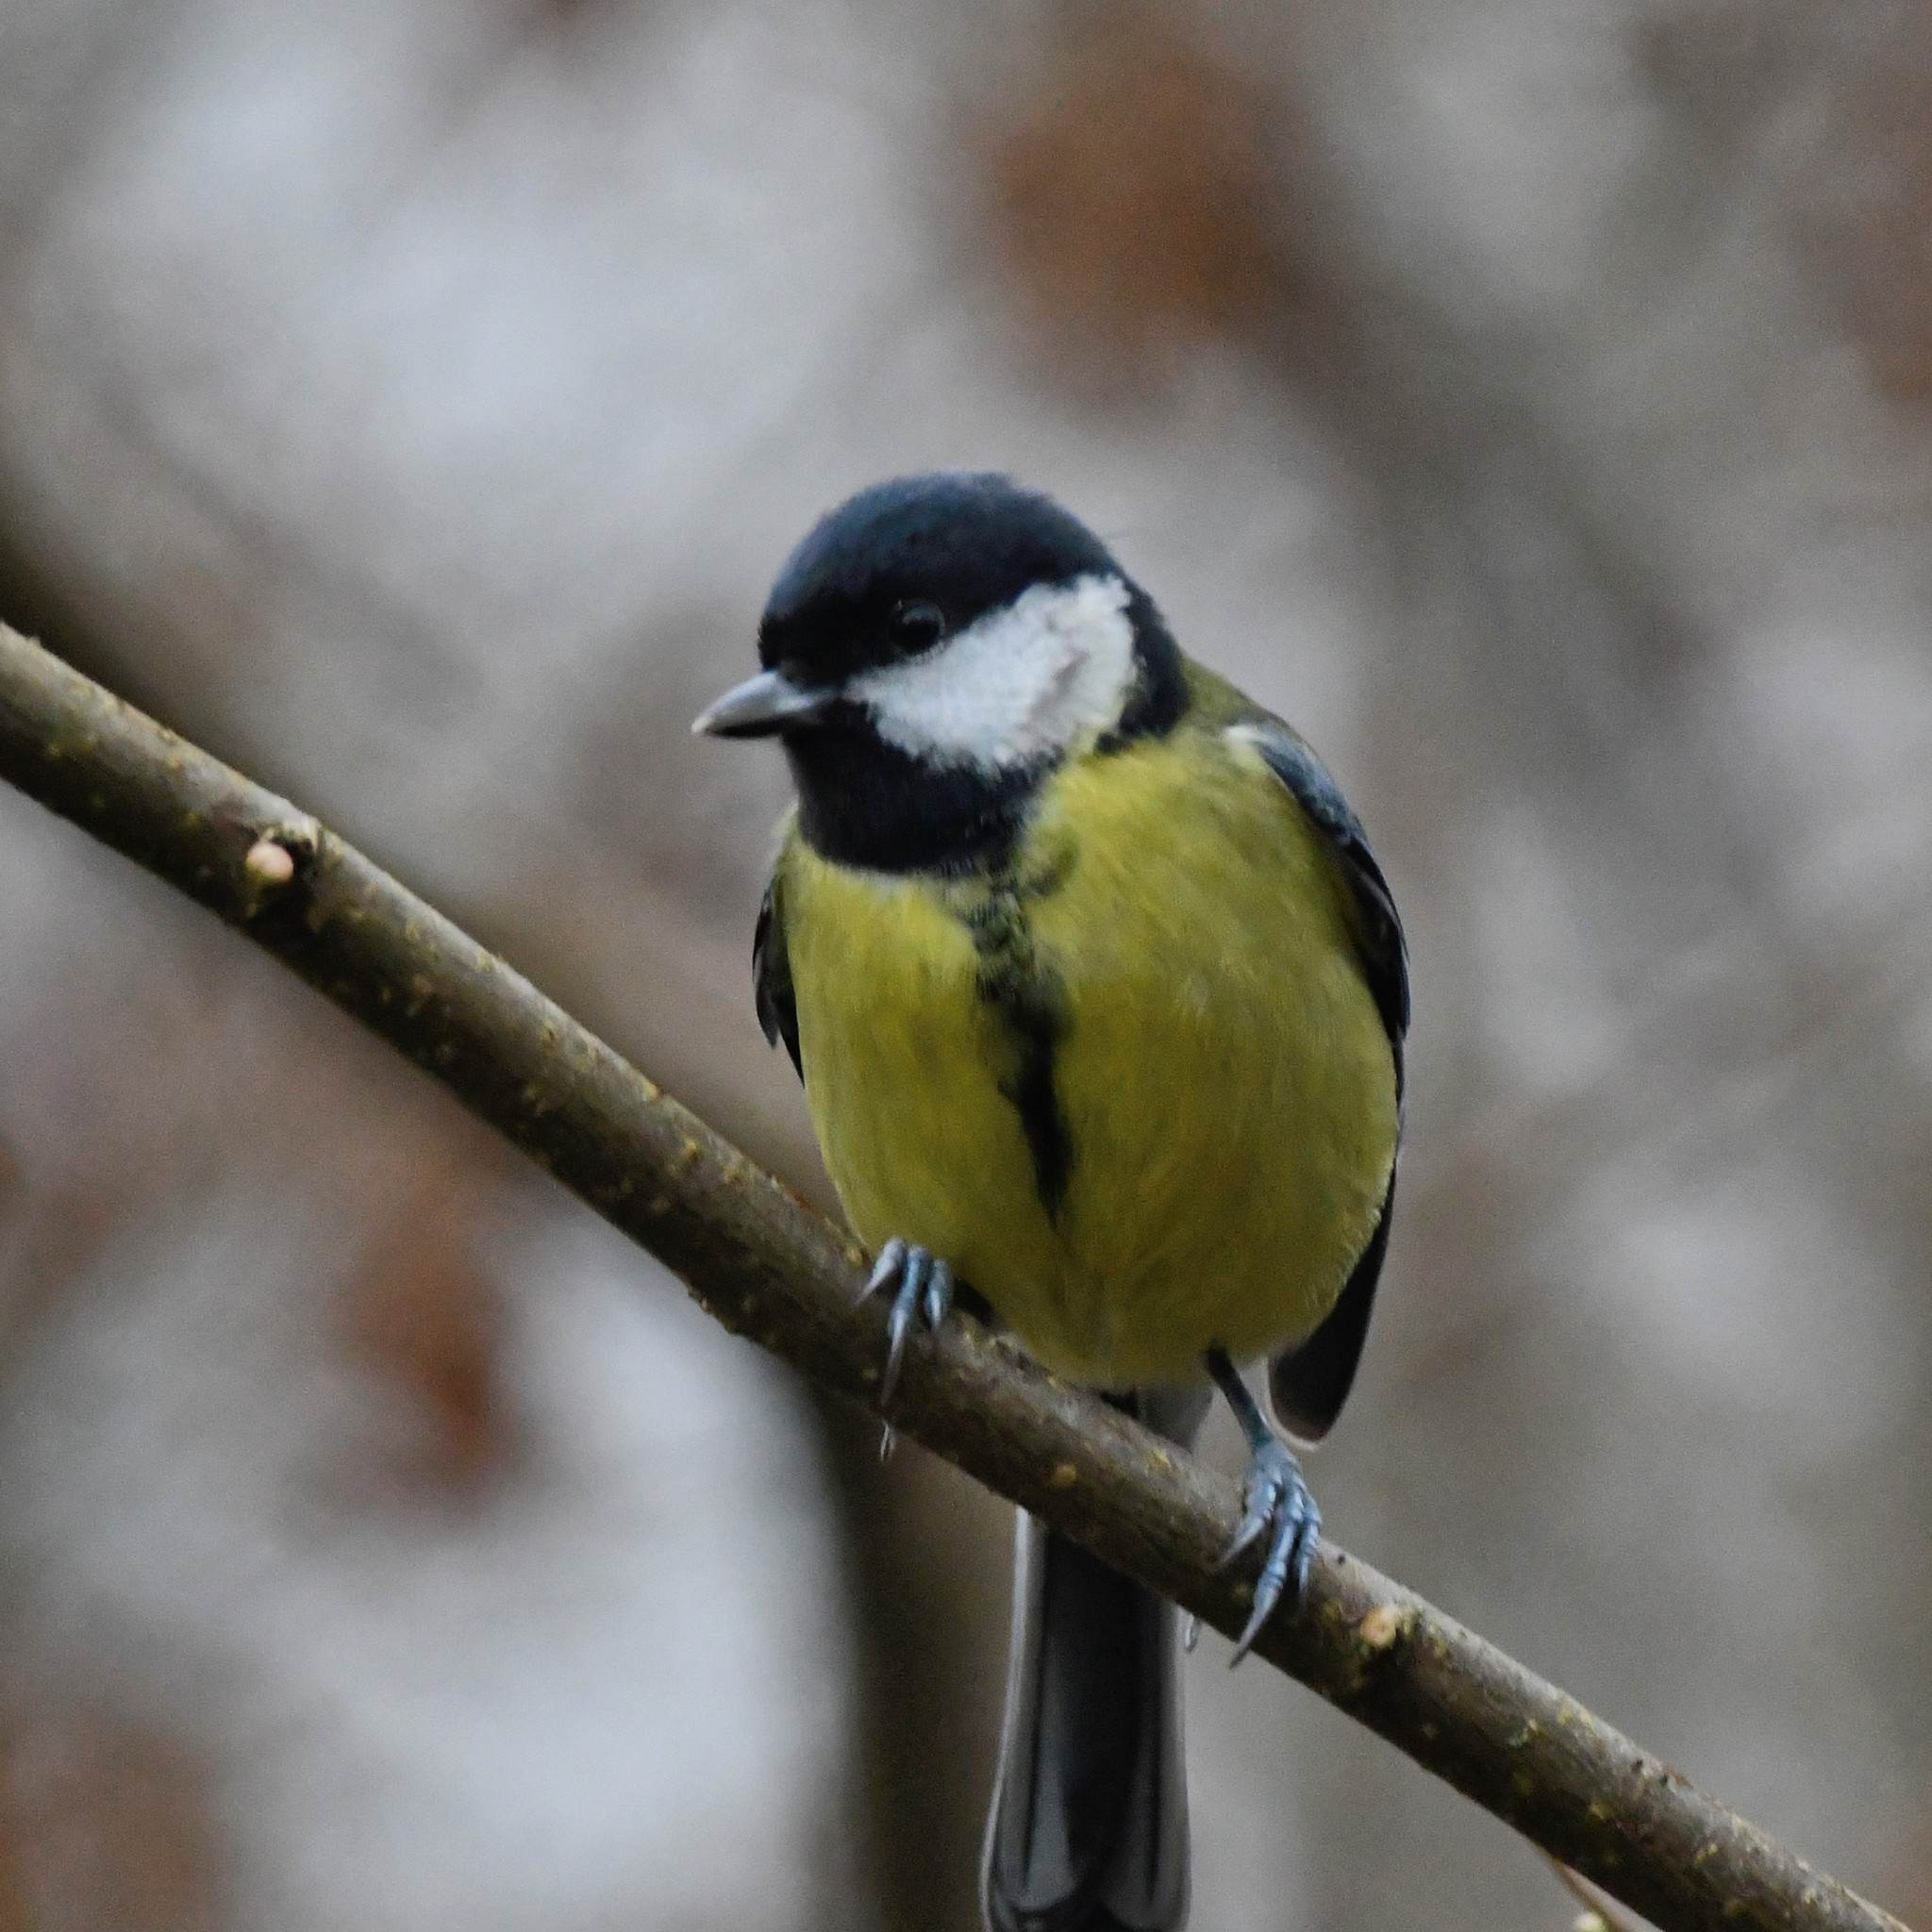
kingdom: Animalia
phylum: Chordata
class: Aves
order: Passeriformes
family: Paridae
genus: Parus
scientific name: Parus major
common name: Great tit
